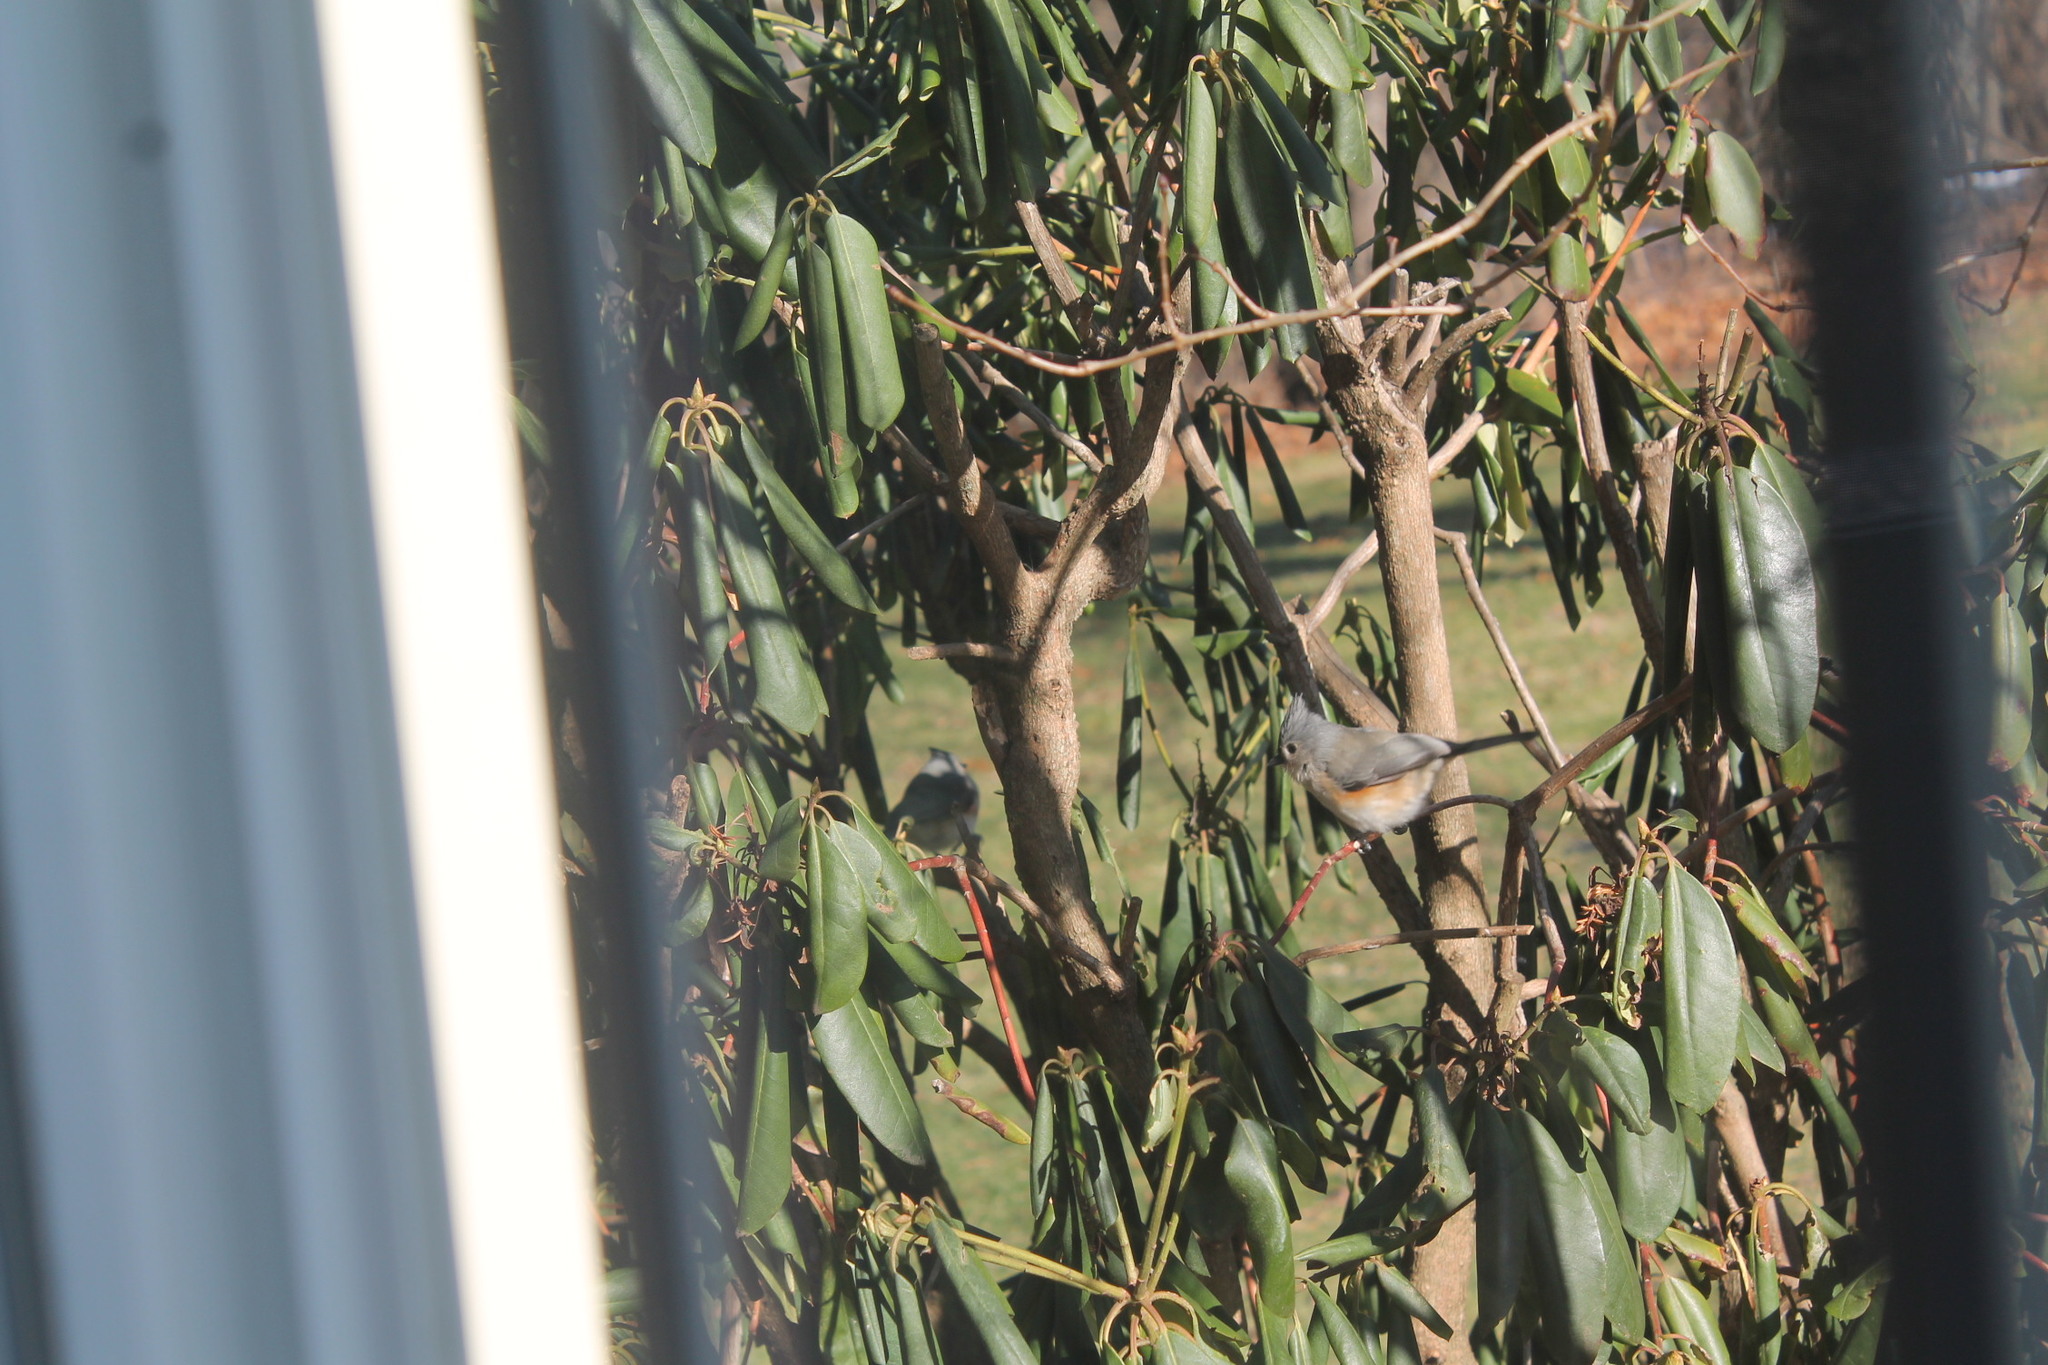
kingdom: Animalia
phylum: Chordata
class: Aves
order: Passeriformes
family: Paridae
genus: Baeolophus
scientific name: Baeolophus bicolor
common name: Tufted titmouse
